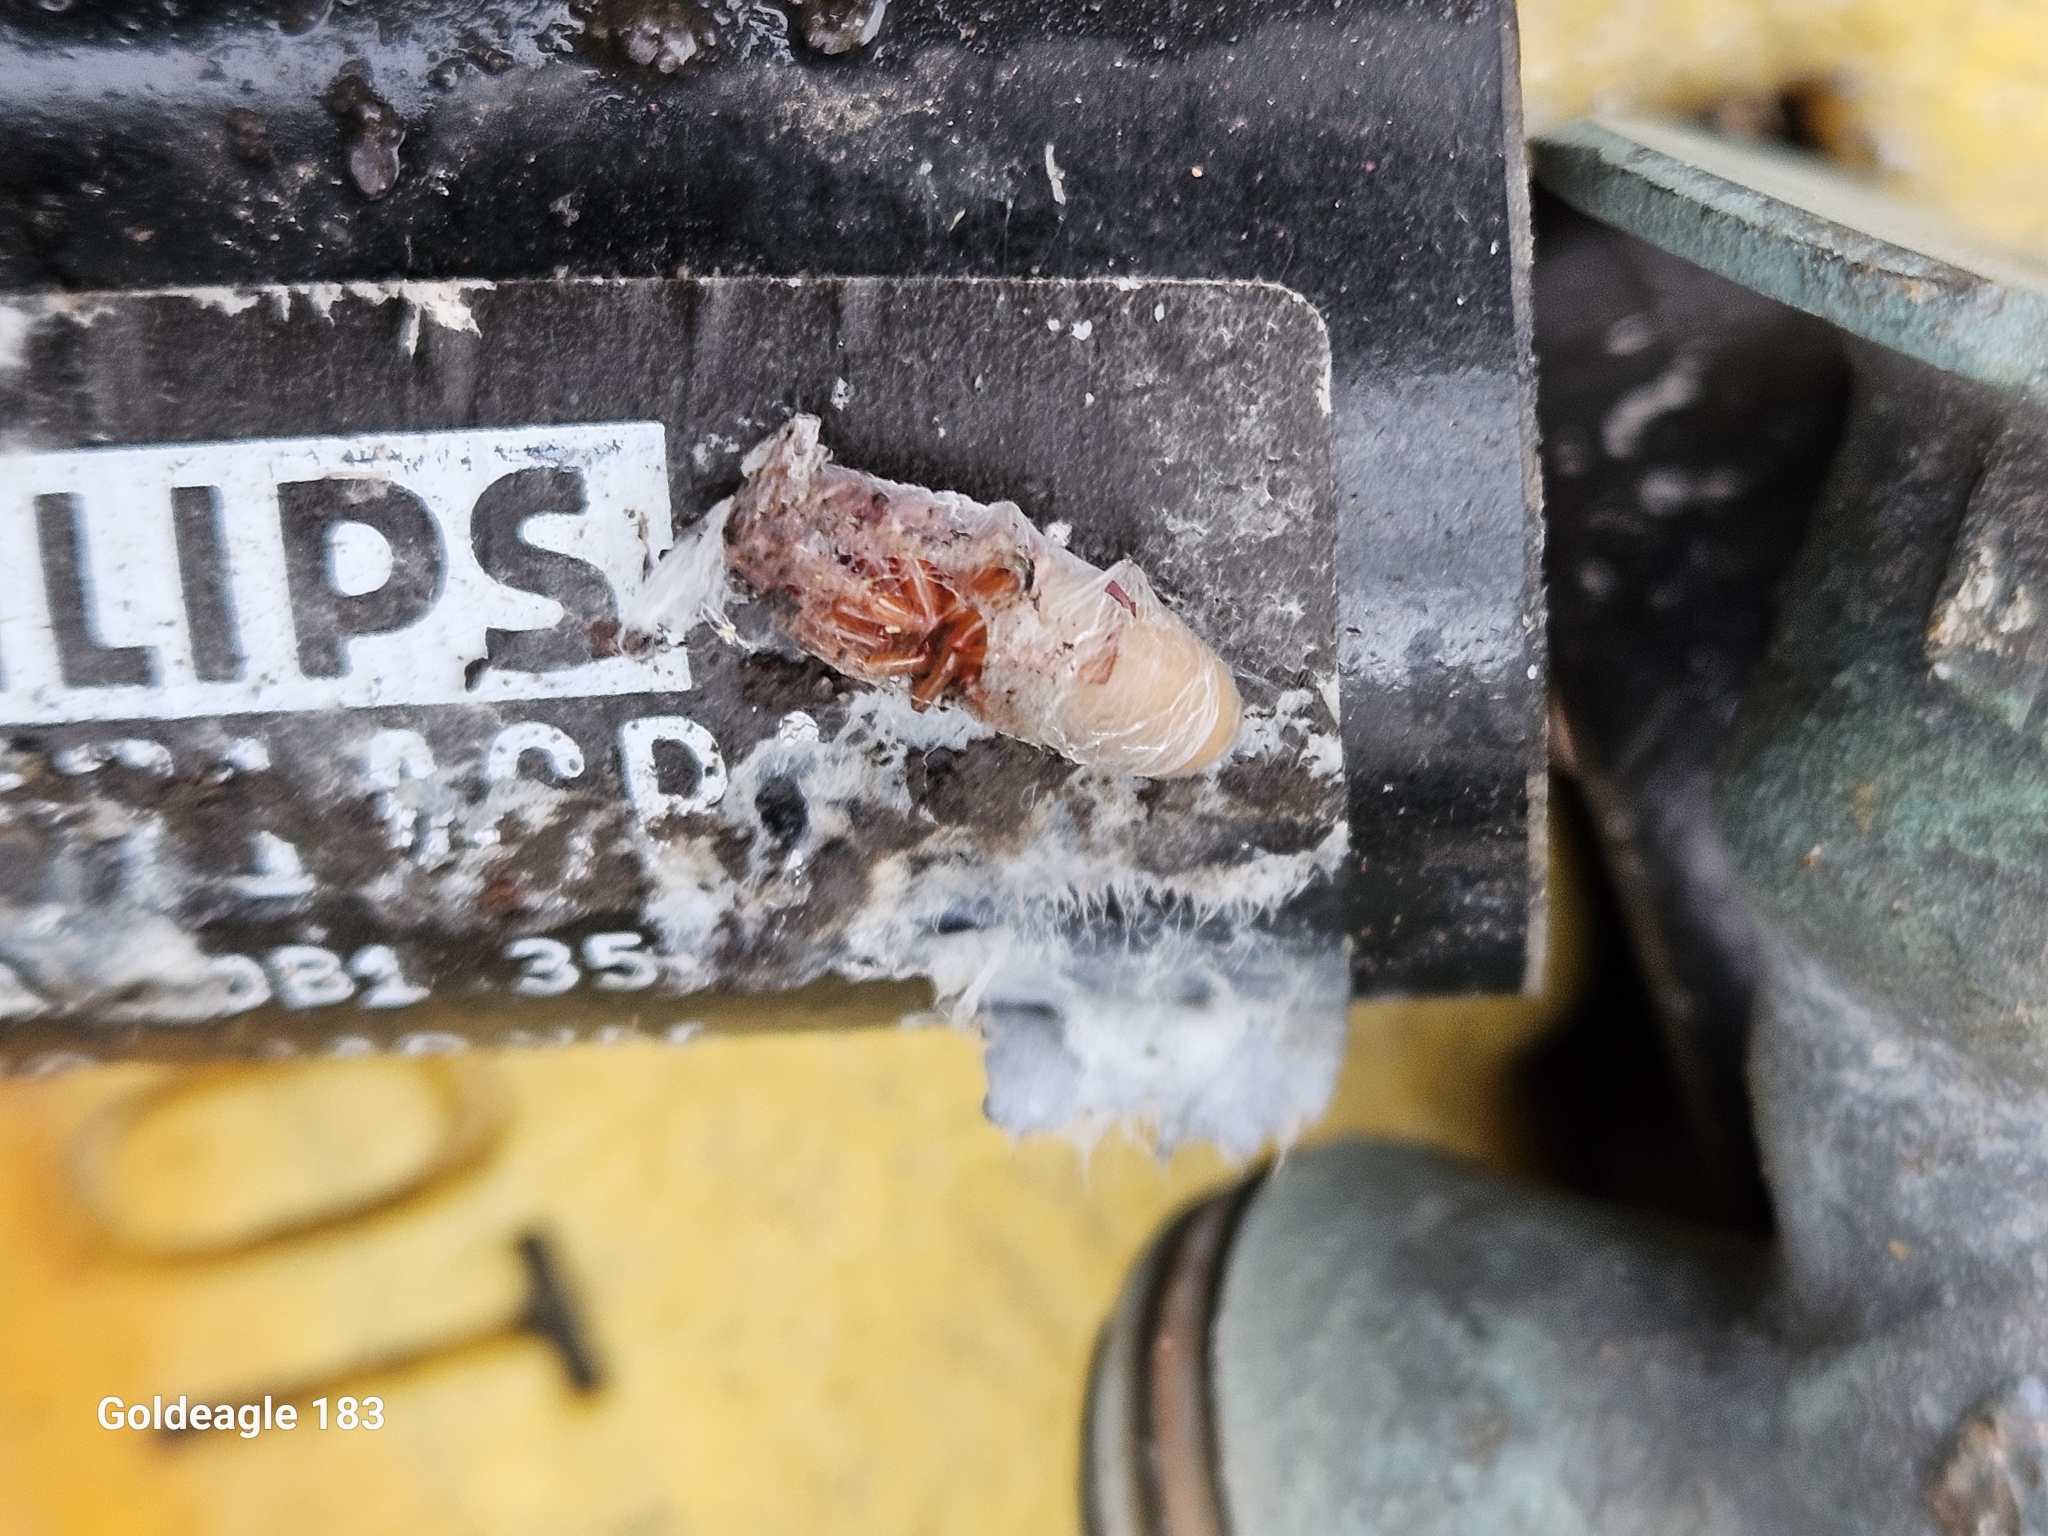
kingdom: Animalia
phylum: Arthropoda
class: Arachnida
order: Araneae
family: Dysderidae
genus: Dysdera
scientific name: Dysdera crocata
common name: Woodlouse spider
